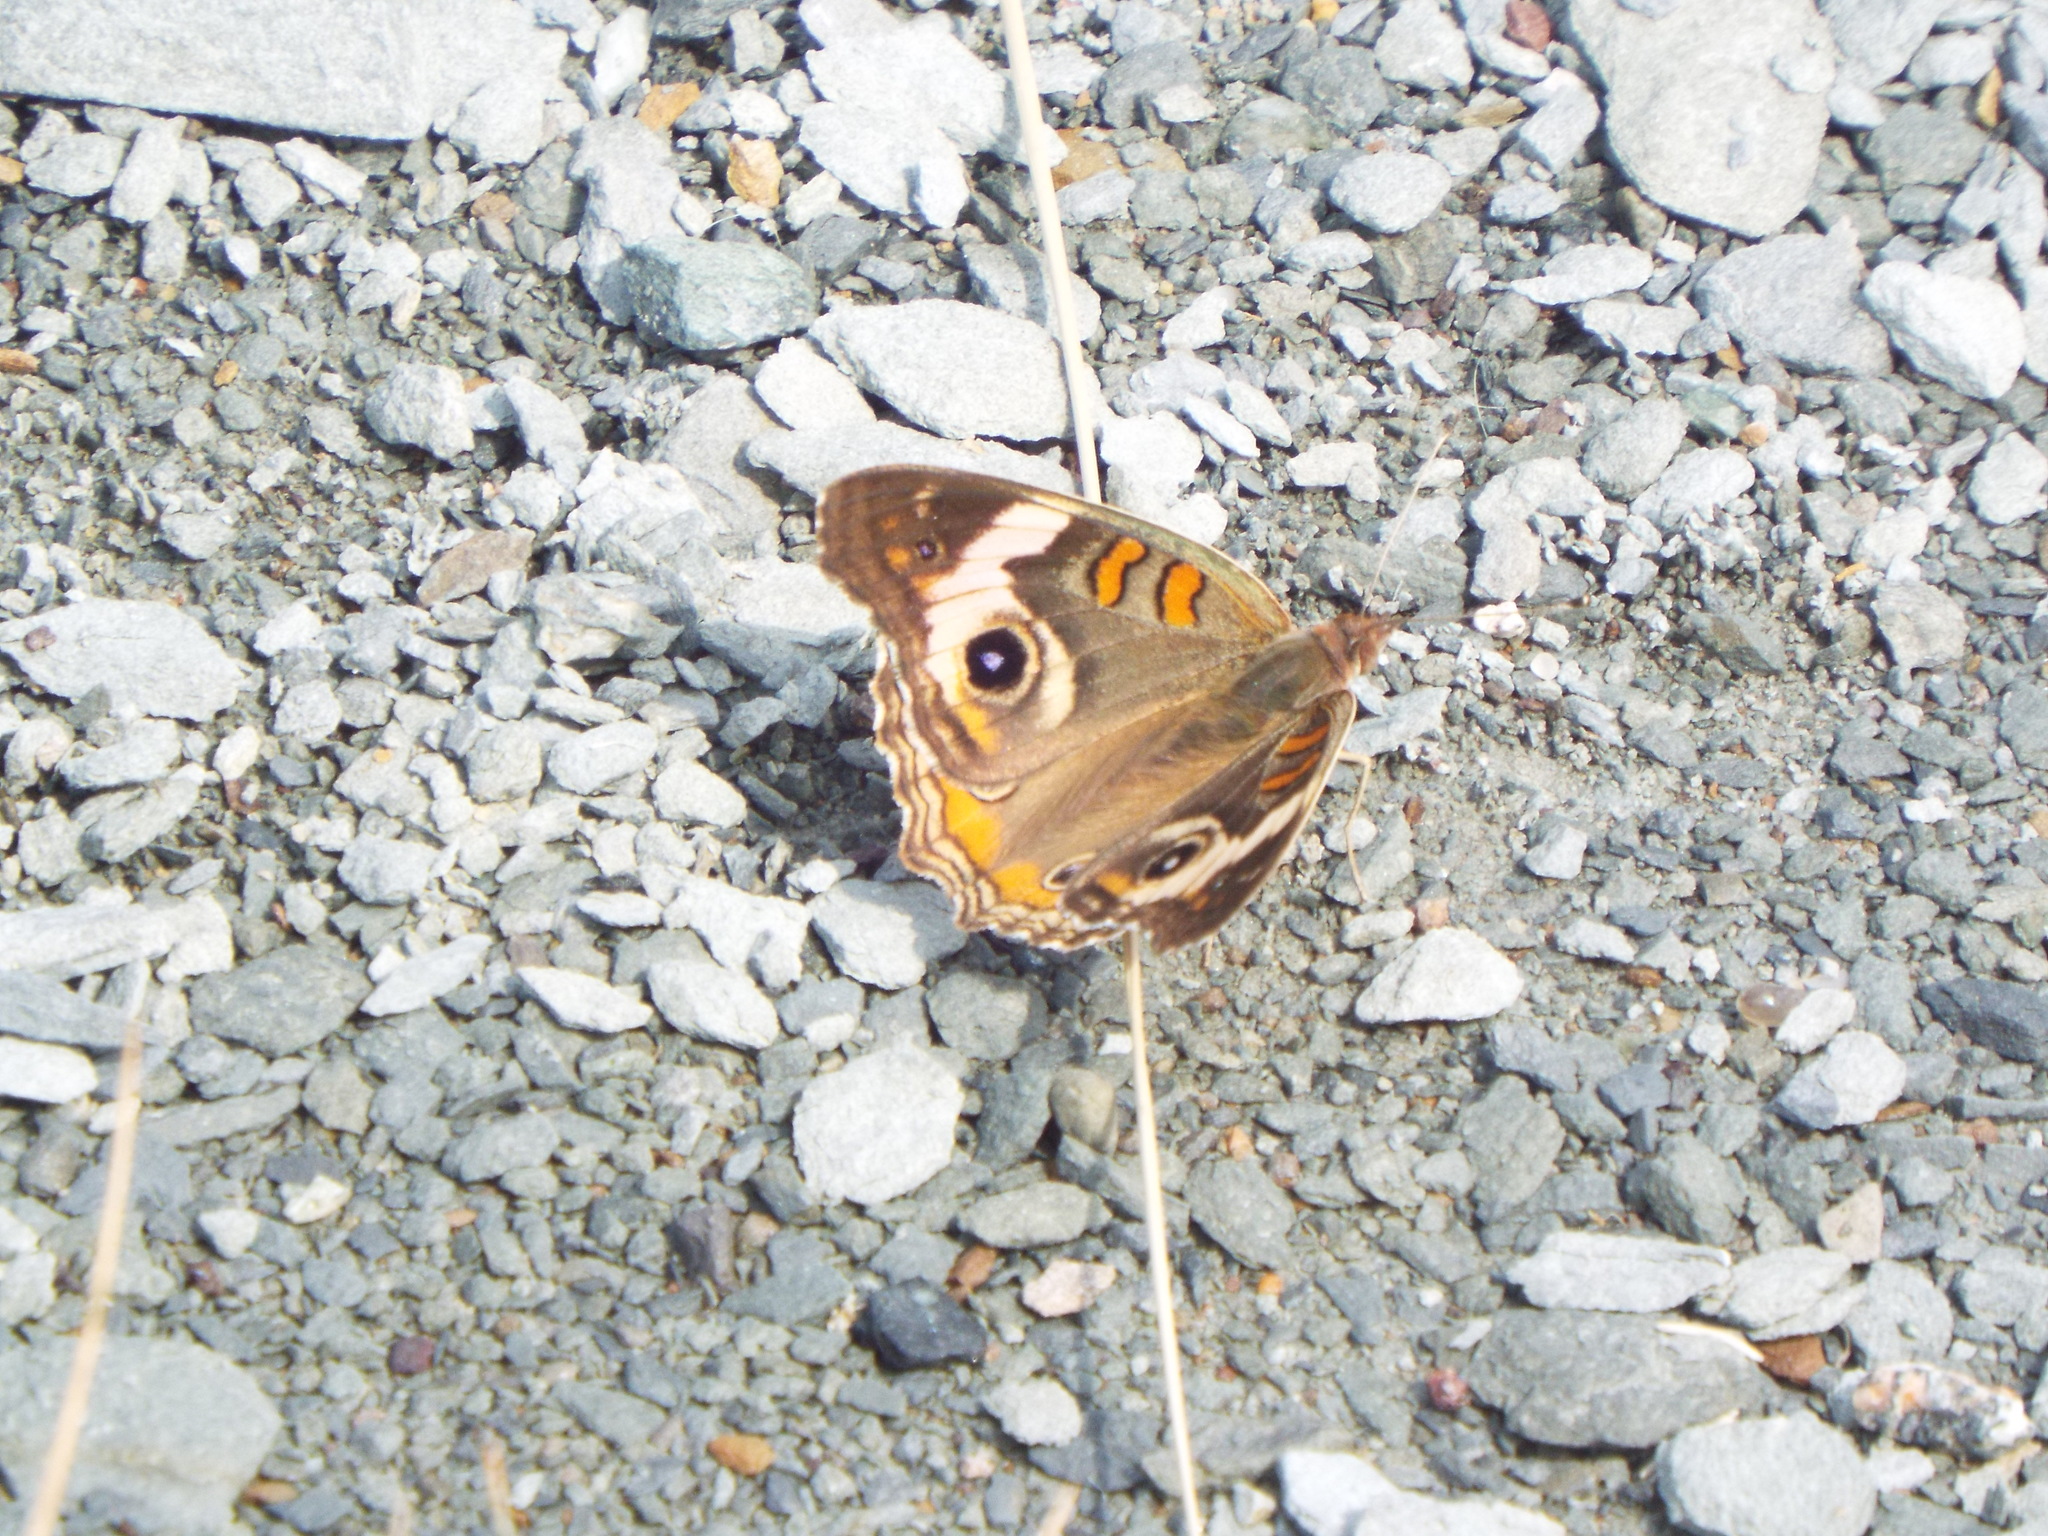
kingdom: Animalia
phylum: Arthropoda
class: Insecta
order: Lepidoptera
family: Nymphalidae
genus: Junonia
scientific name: Junonia coenia
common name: Common buckeye
